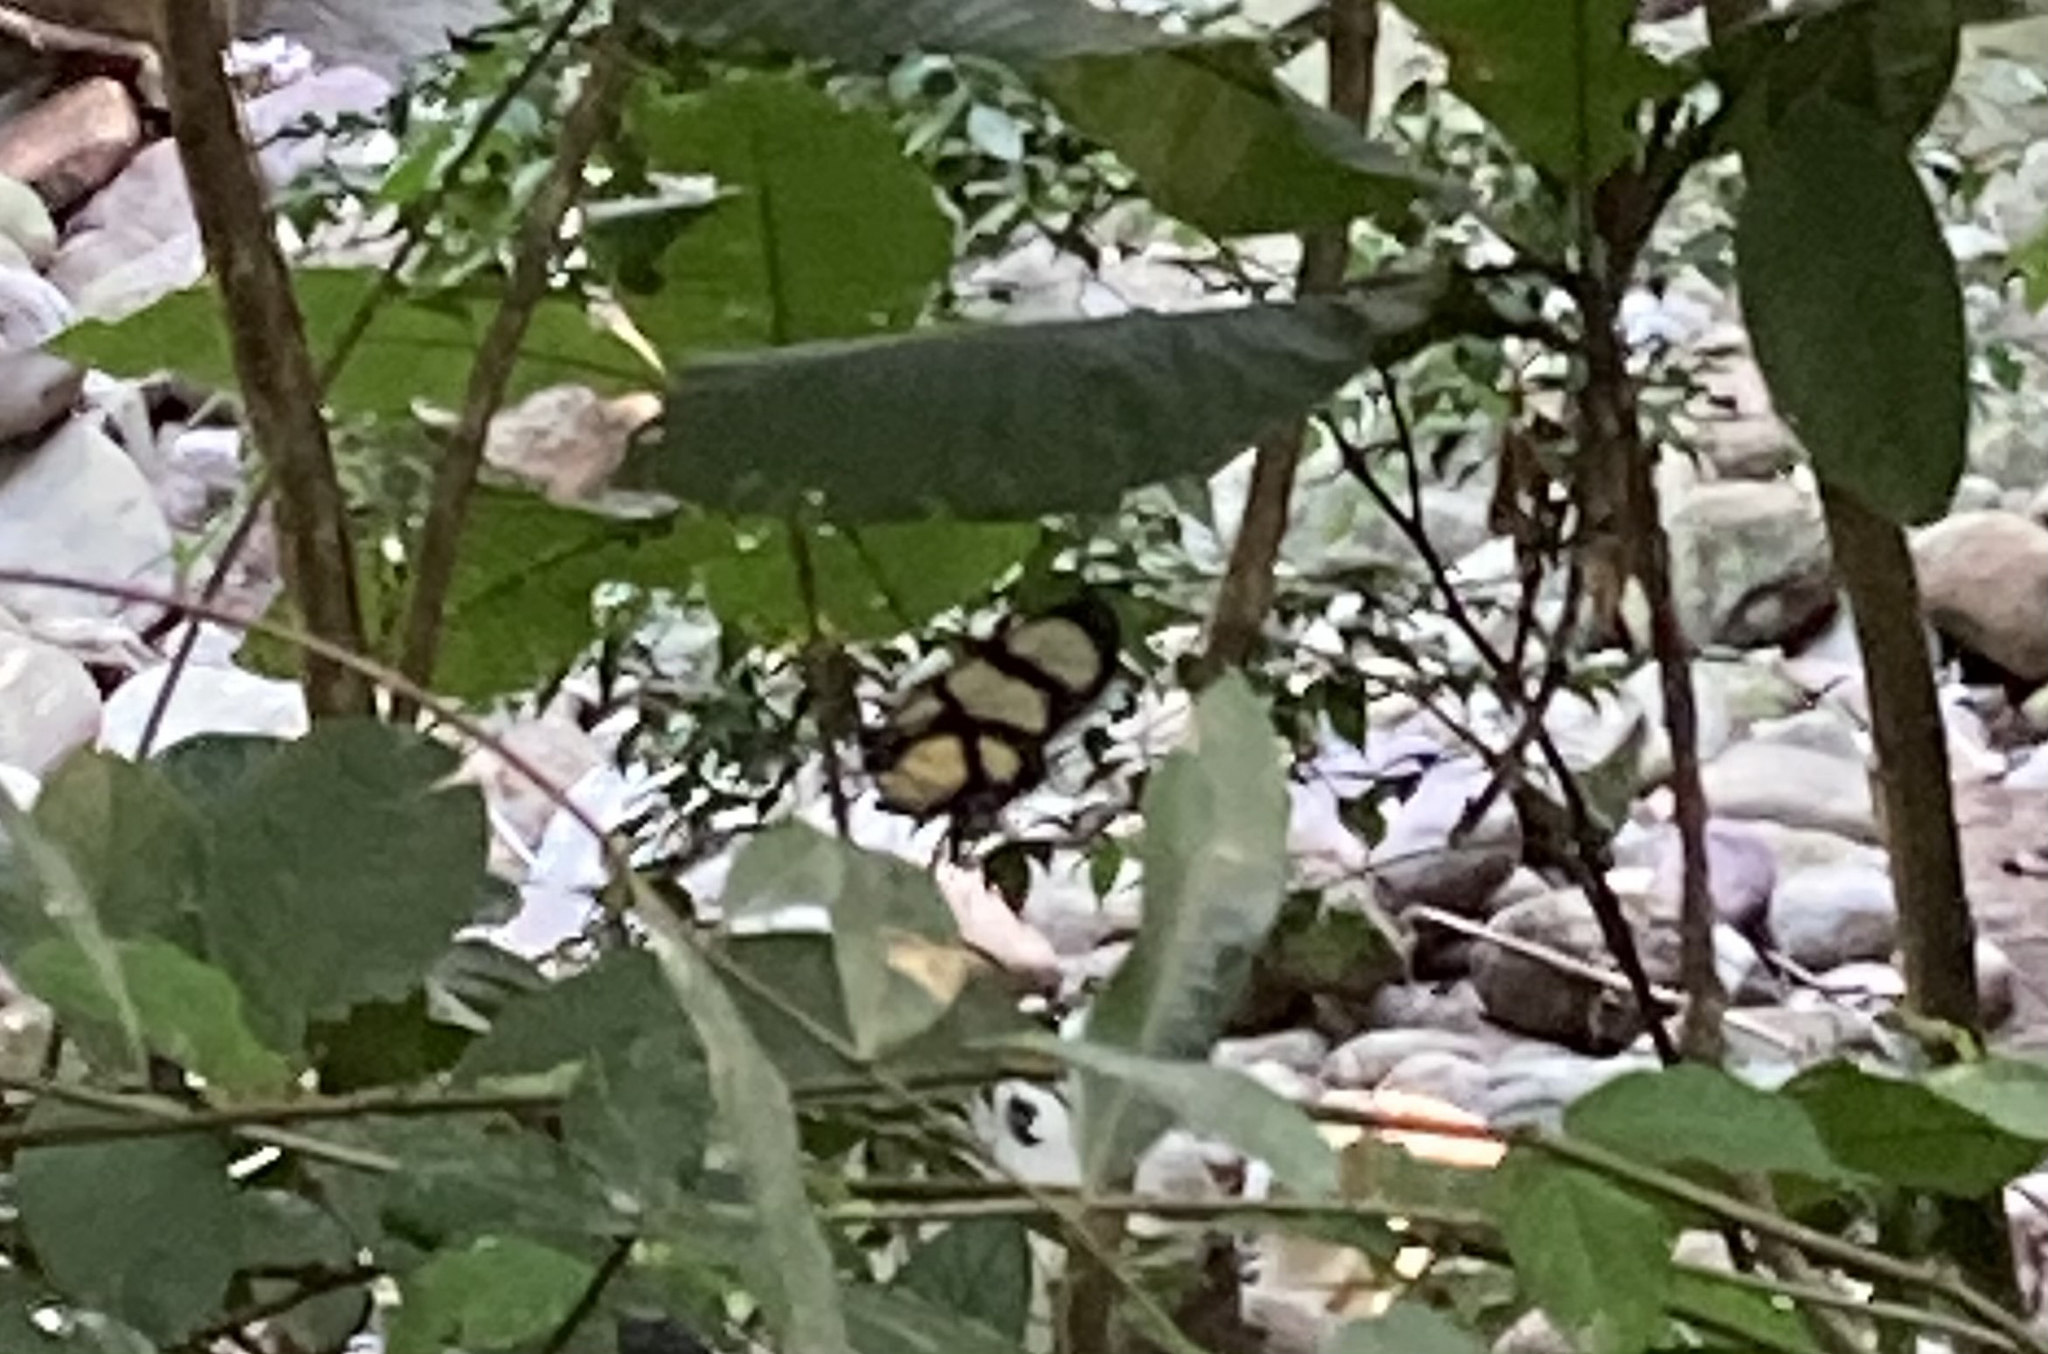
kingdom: Animalia
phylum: Arthropoda
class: Insecta
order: Lepidoptera
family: Nymphalidae
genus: Methona
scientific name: Methona confusa
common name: Confusa tigerwing
